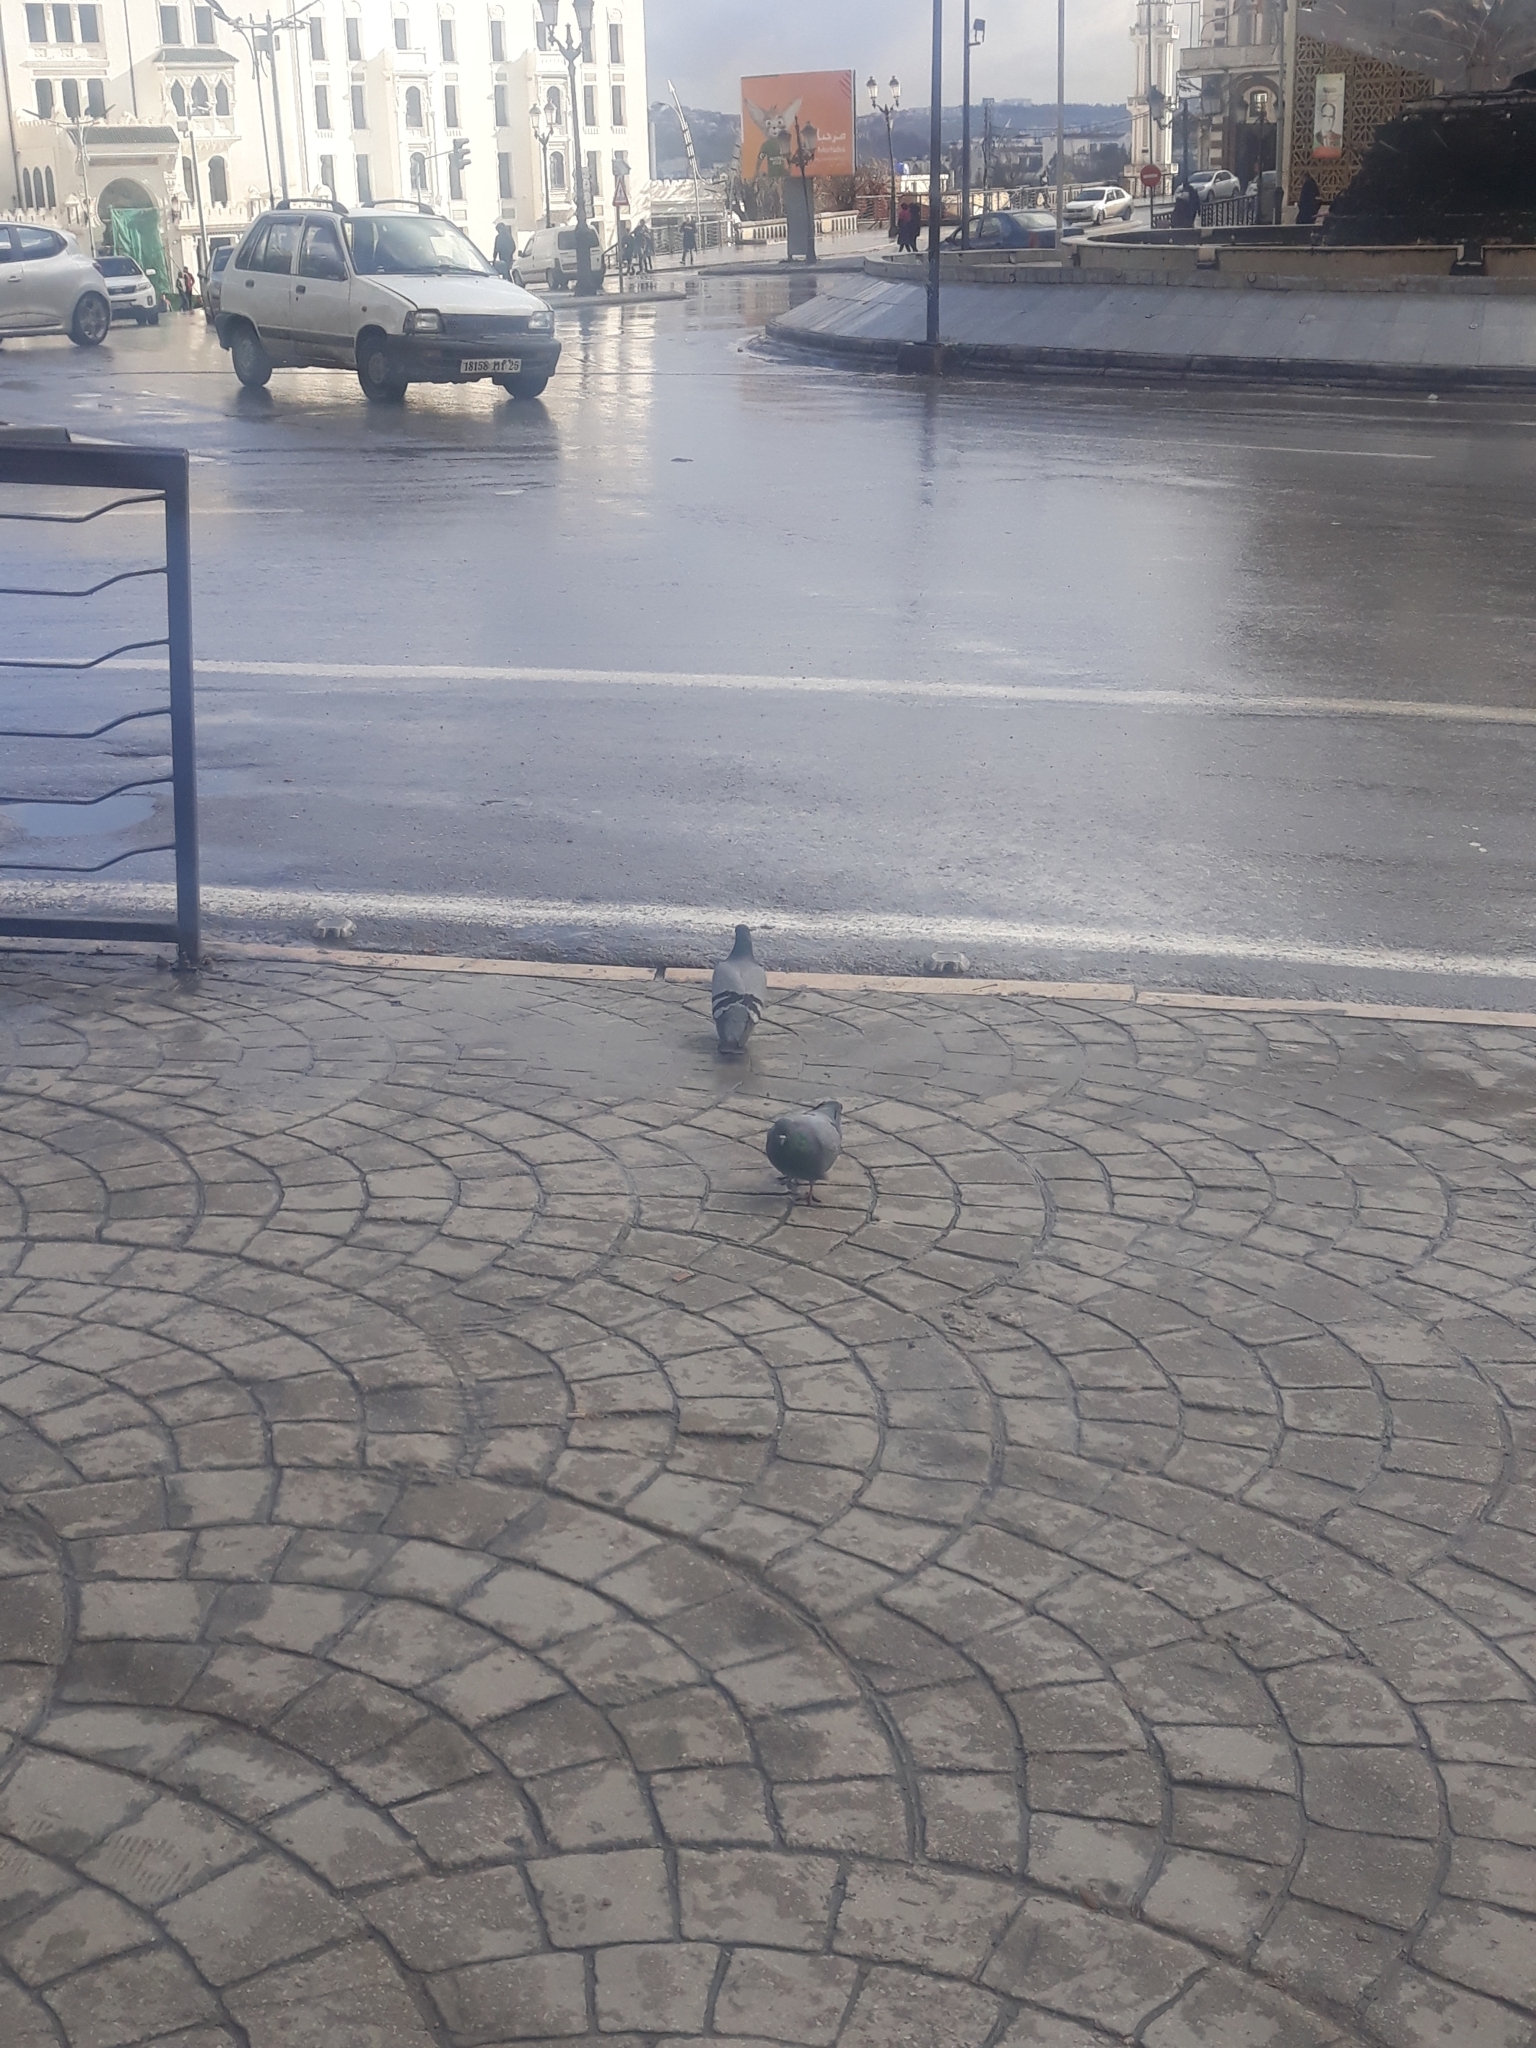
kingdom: Animalia
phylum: Chordata
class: Aves
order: Columbiformes
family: Columbidae
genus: Columba
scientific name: Columba livia
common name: Rock pigeon
